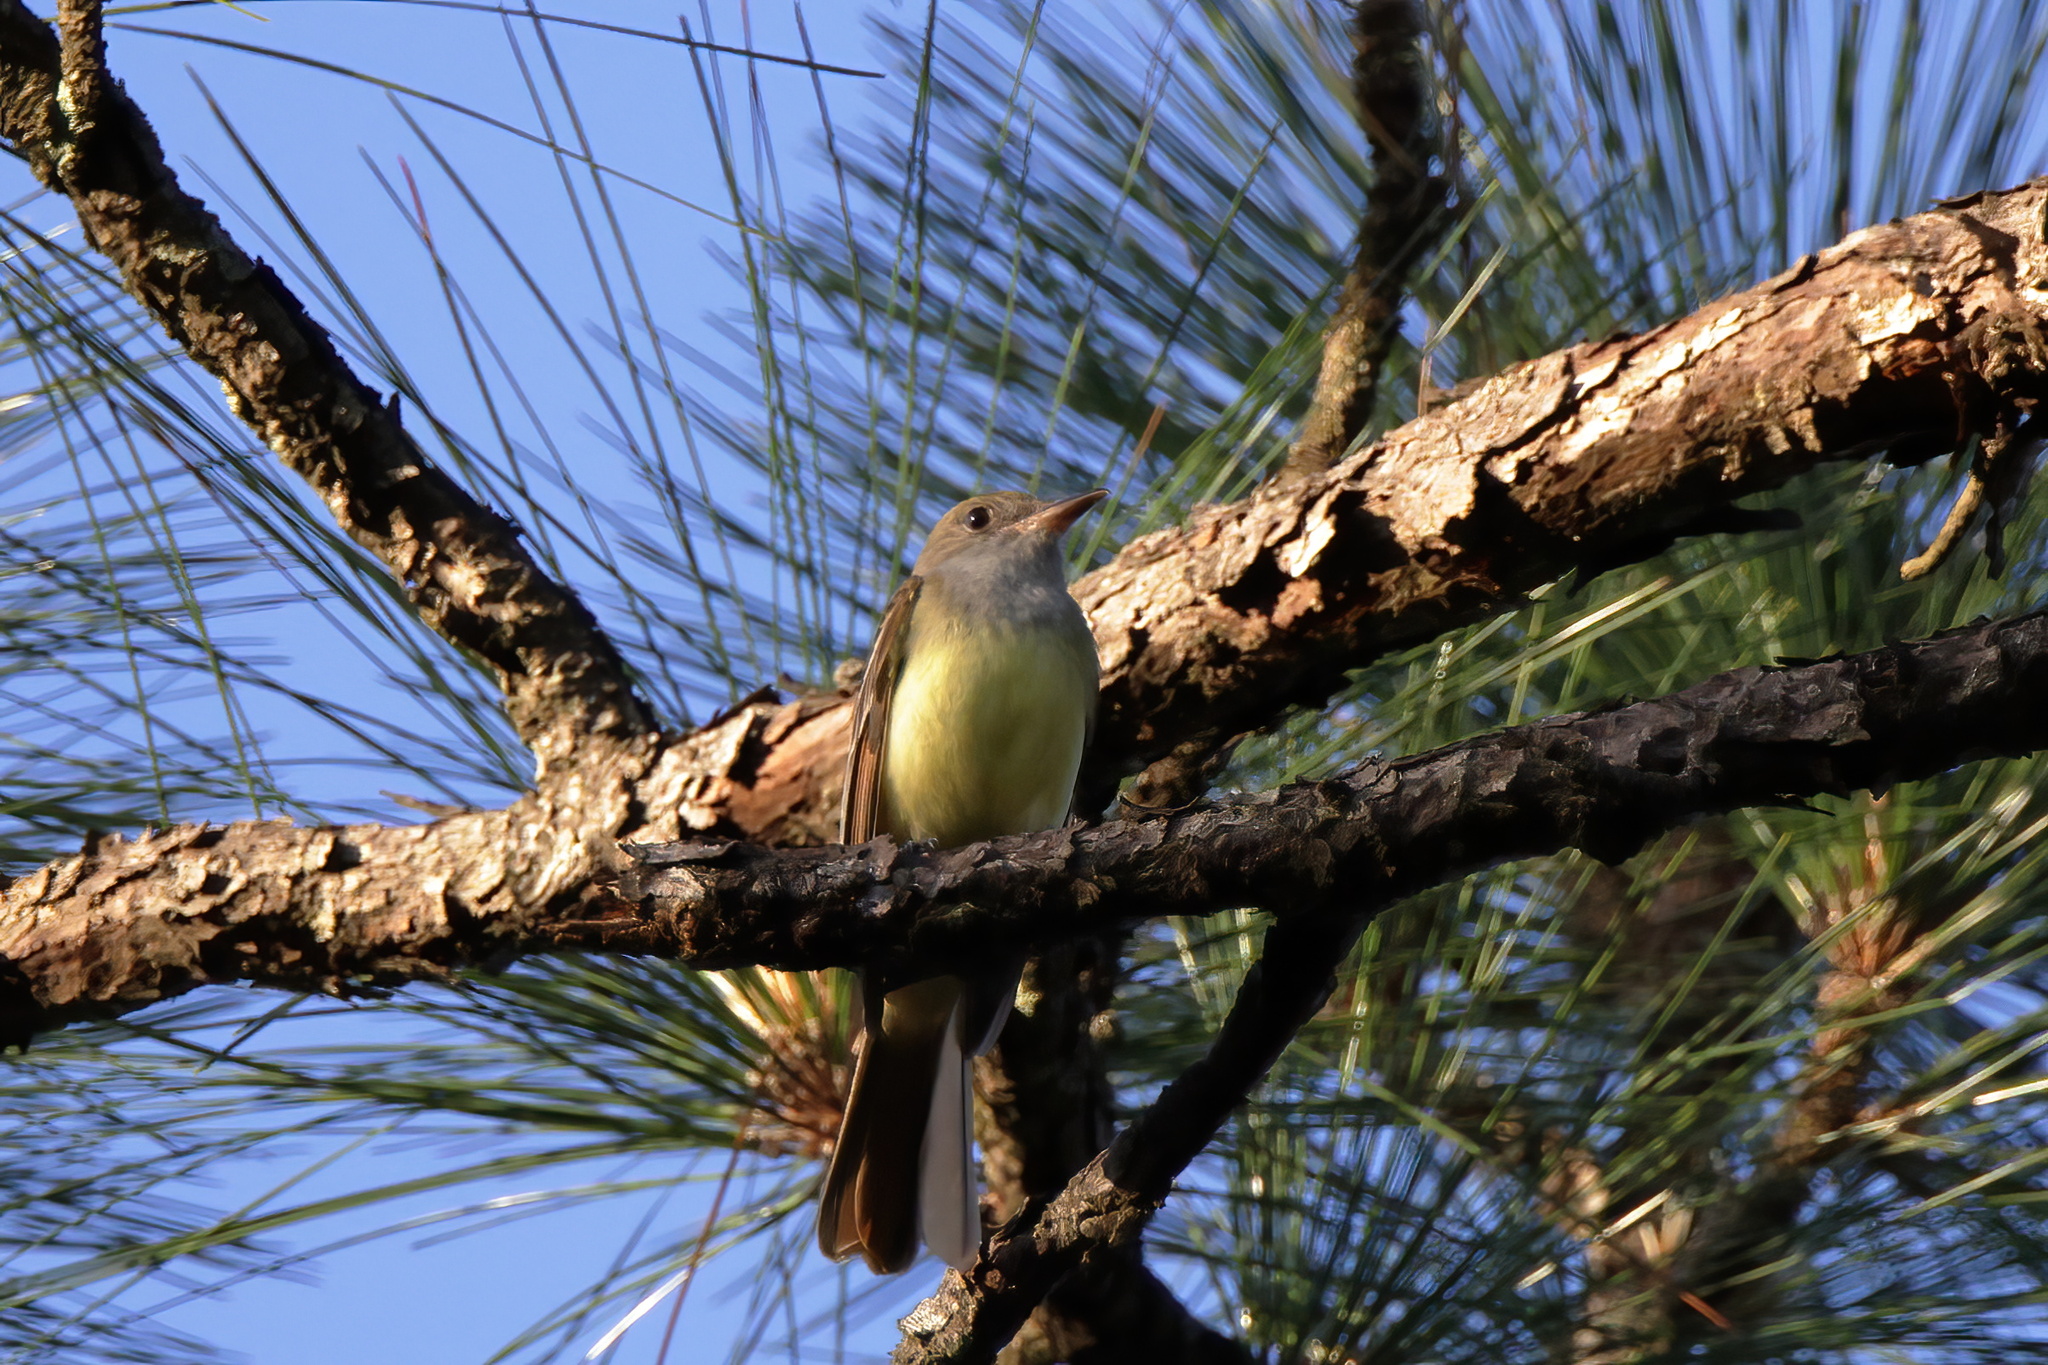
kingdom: Animalia
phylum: Chordata
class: Aves
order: Passeriformes
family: Tyrannidae
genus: Myiarchus
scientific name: Myiarchus crinitus
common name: Great crested flycatcher
